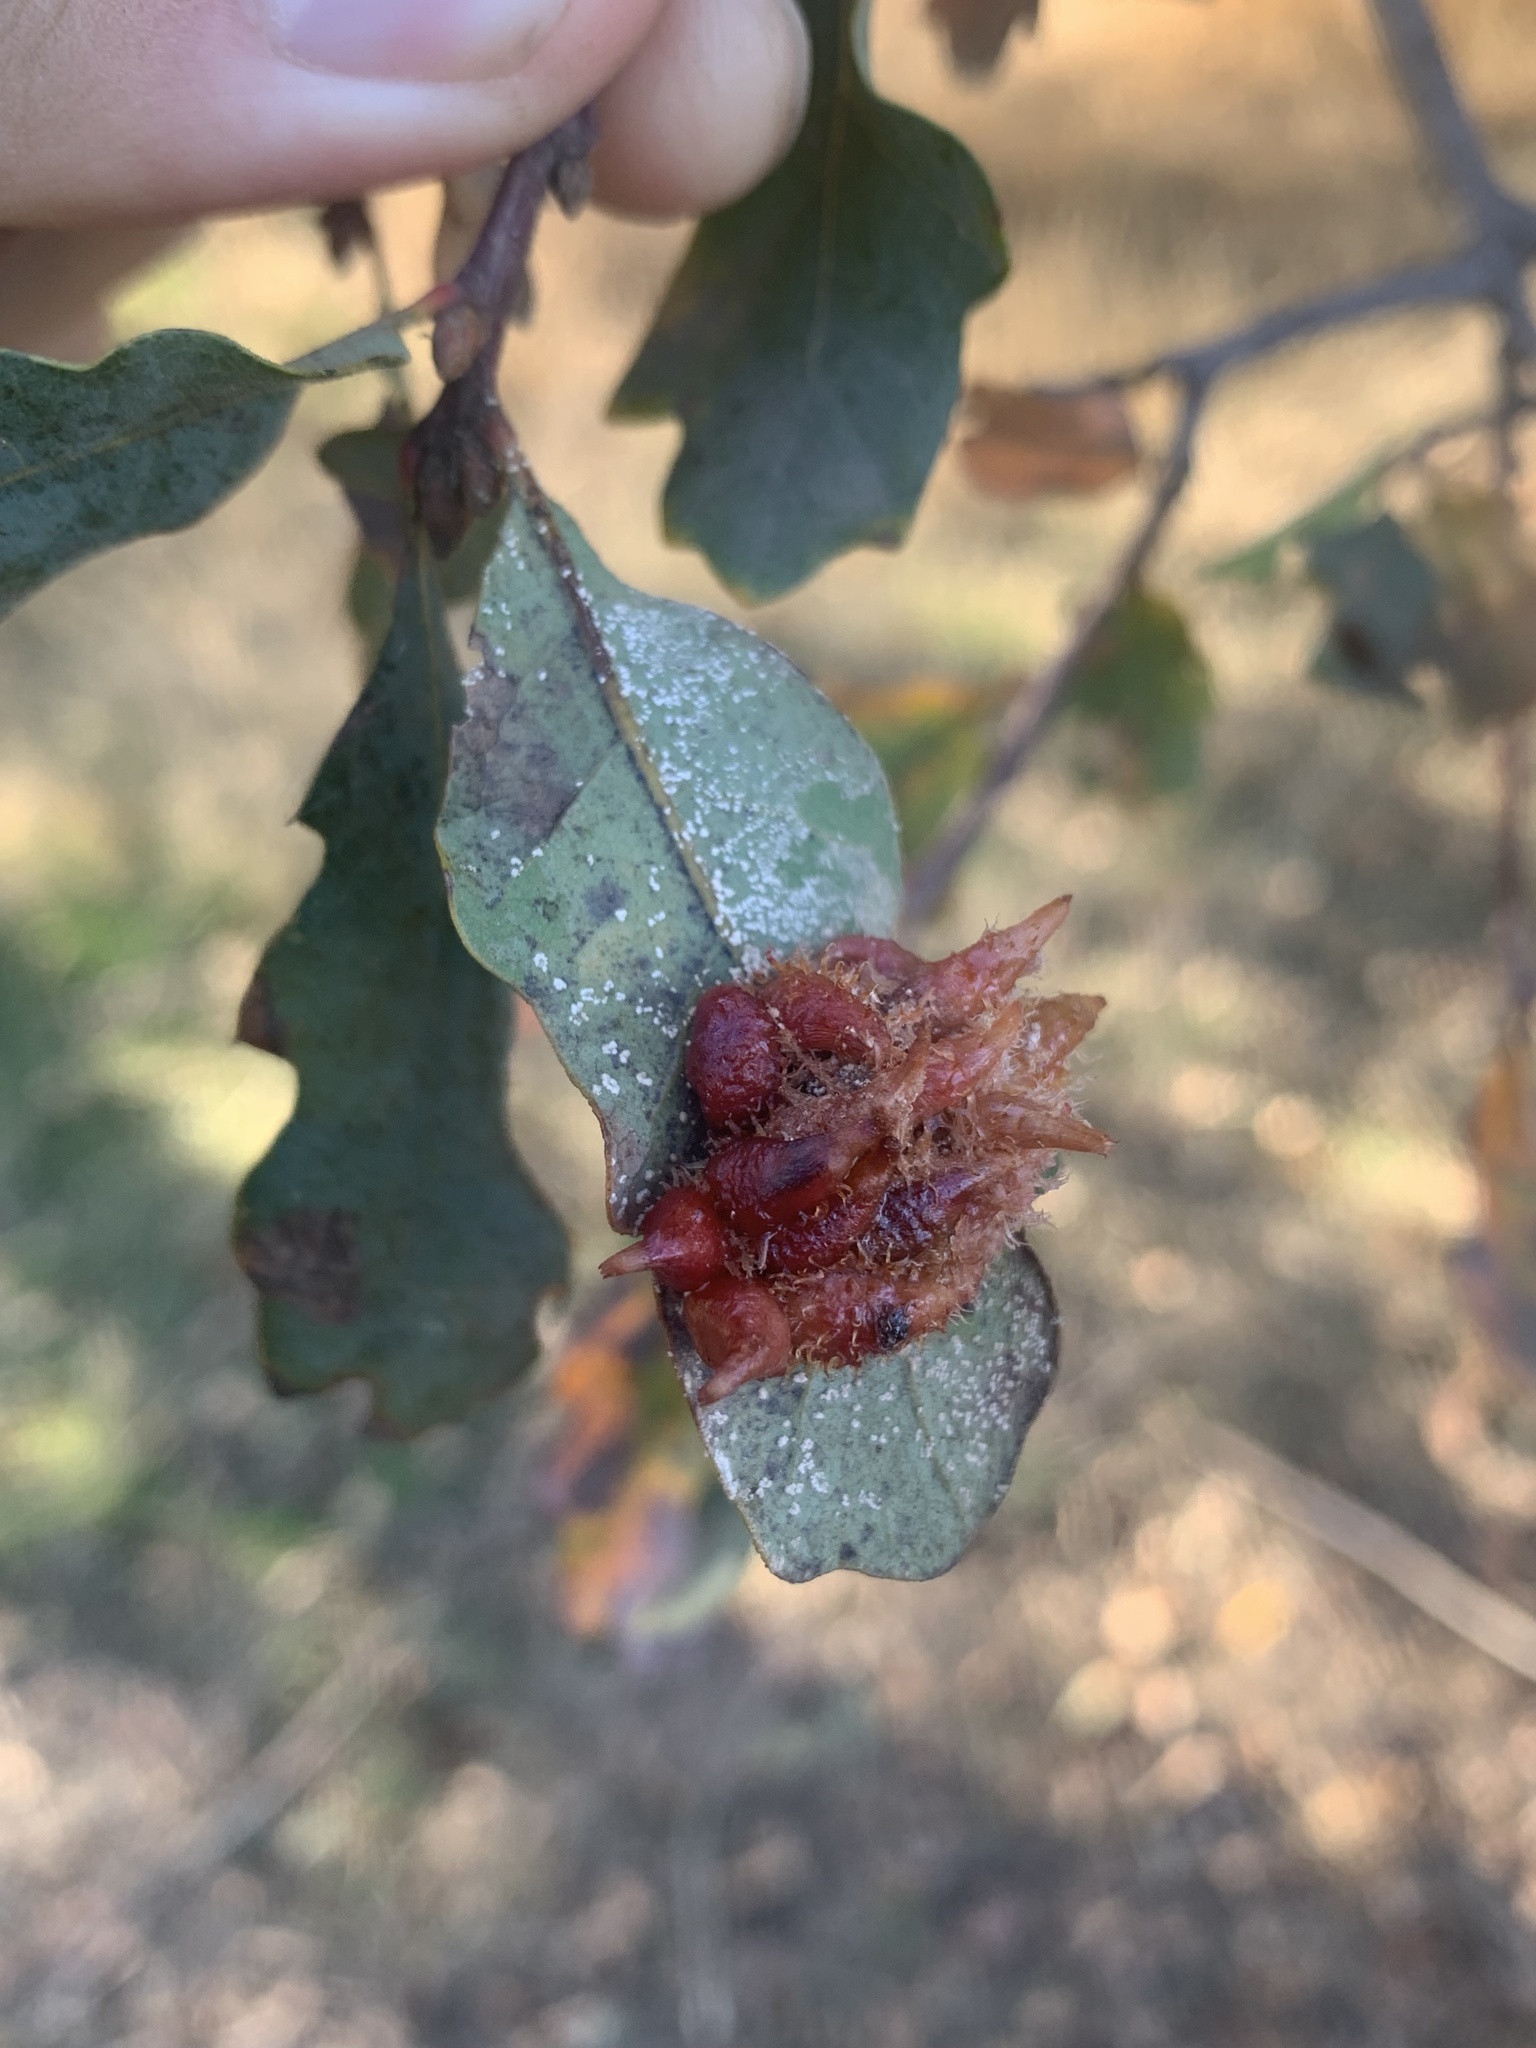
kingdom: Animalia
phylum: Arthropoda
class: Insecta
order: Hymenoptera
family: Cynipidae
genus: Andricus
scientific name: Andricus
